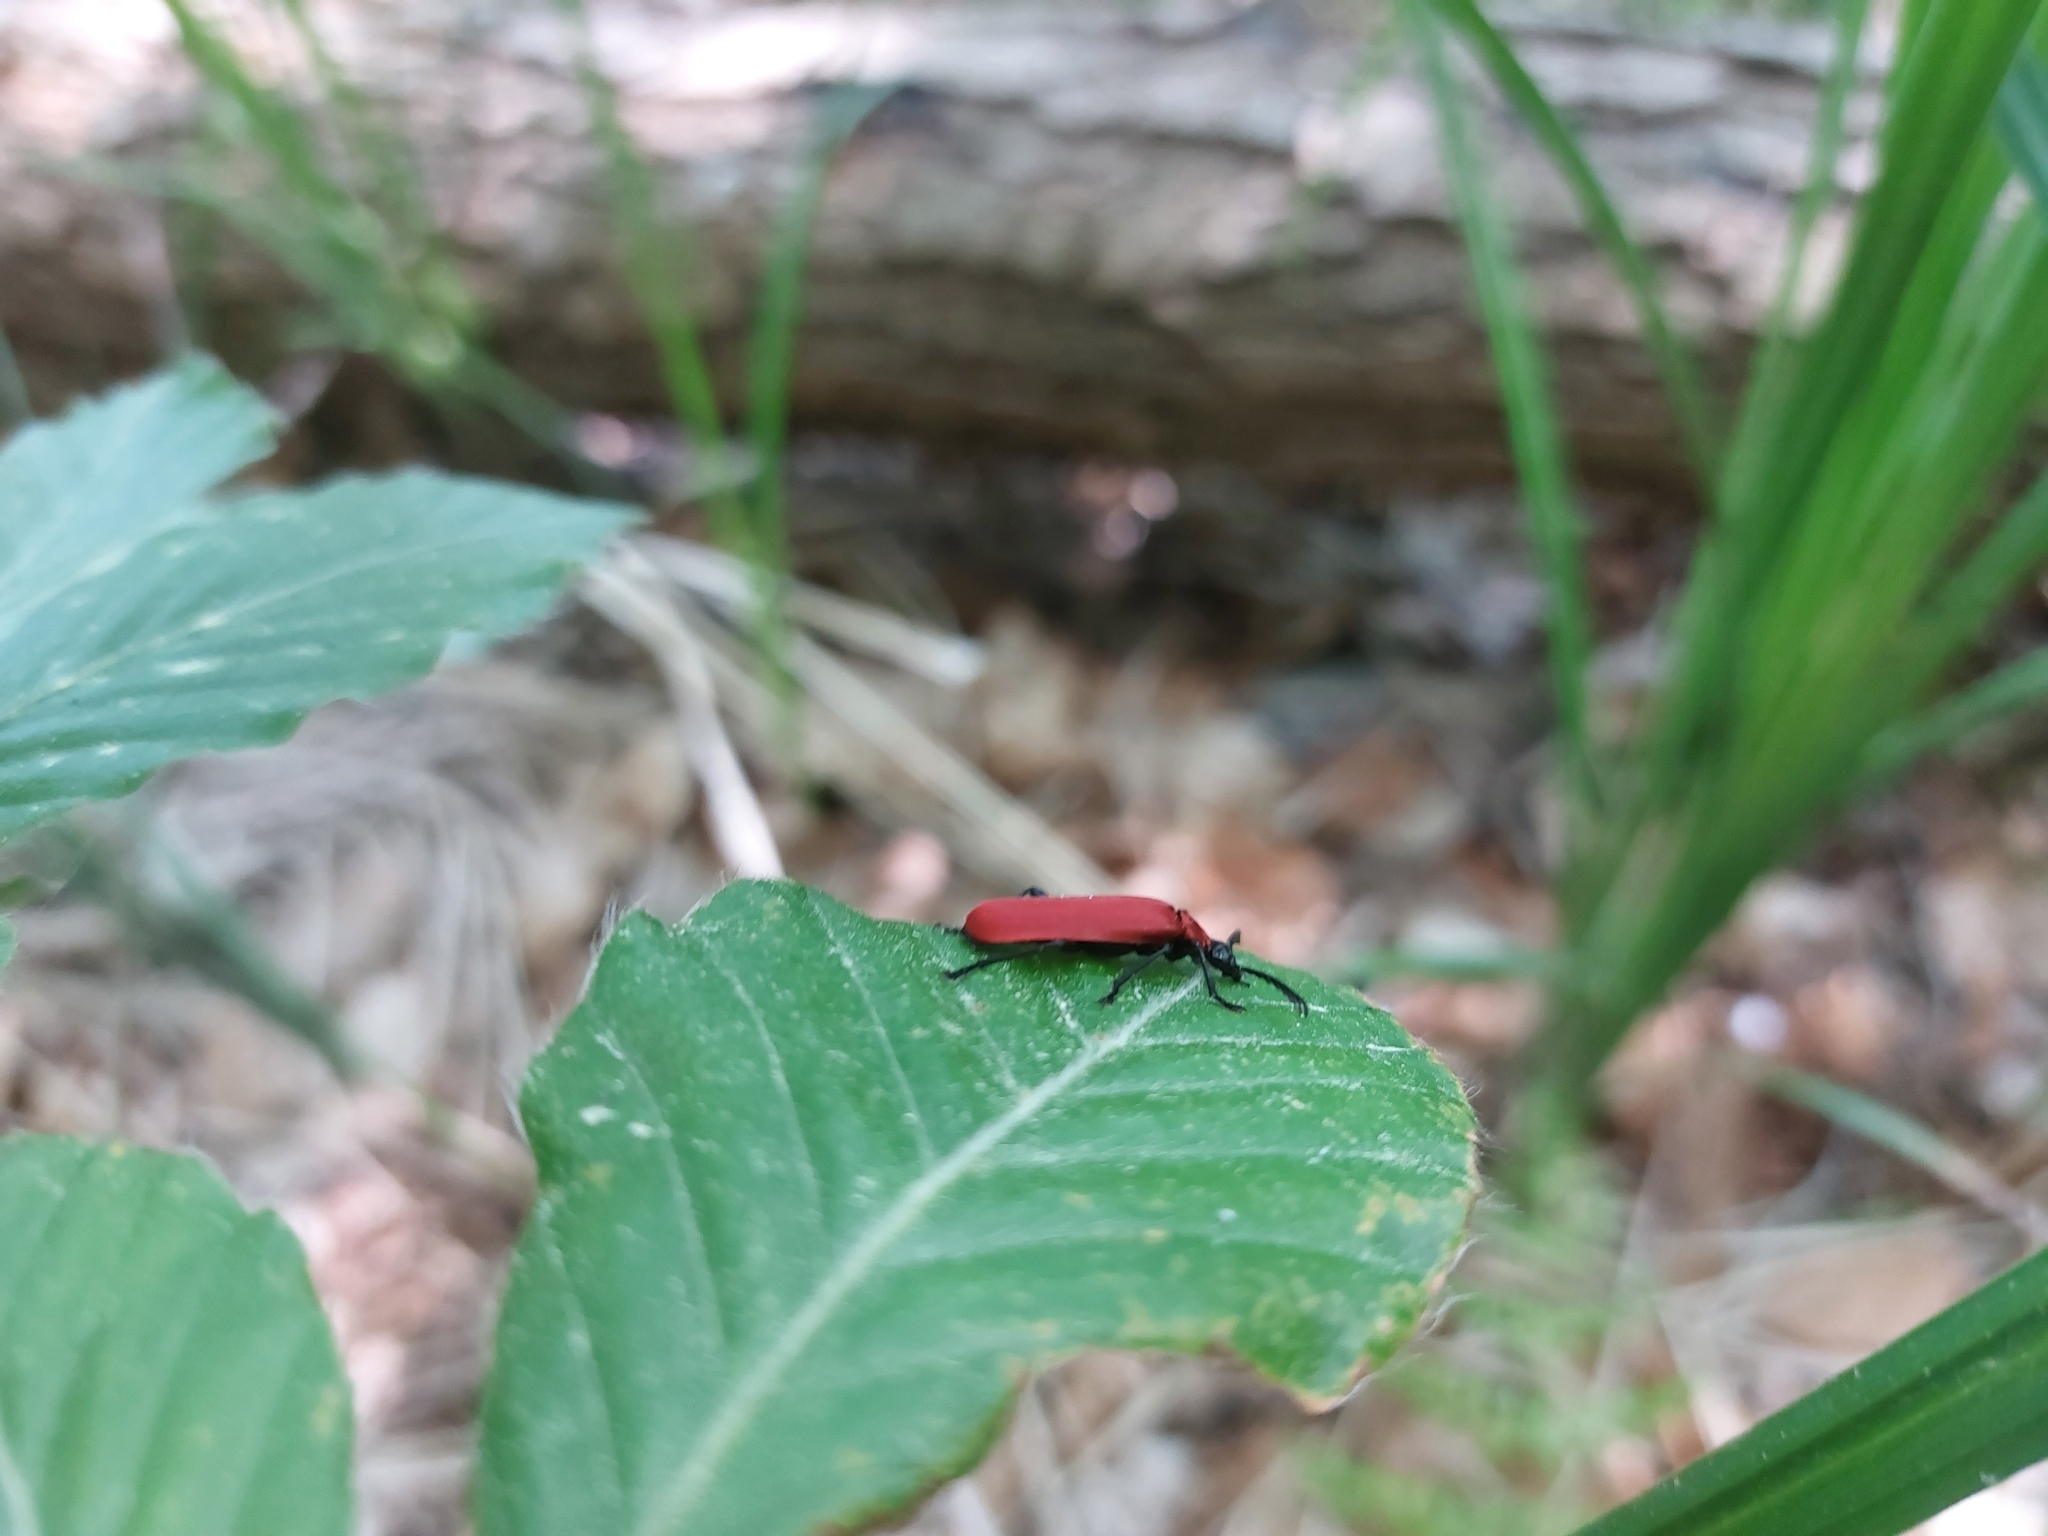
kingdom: Animalia
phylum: Arthropoda
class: Insecta
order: Coleoptera
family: Pyrochroidae
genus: Pyrochroa
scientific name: Pyrochroa coccinea
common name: Black-headed cardinal beetle
